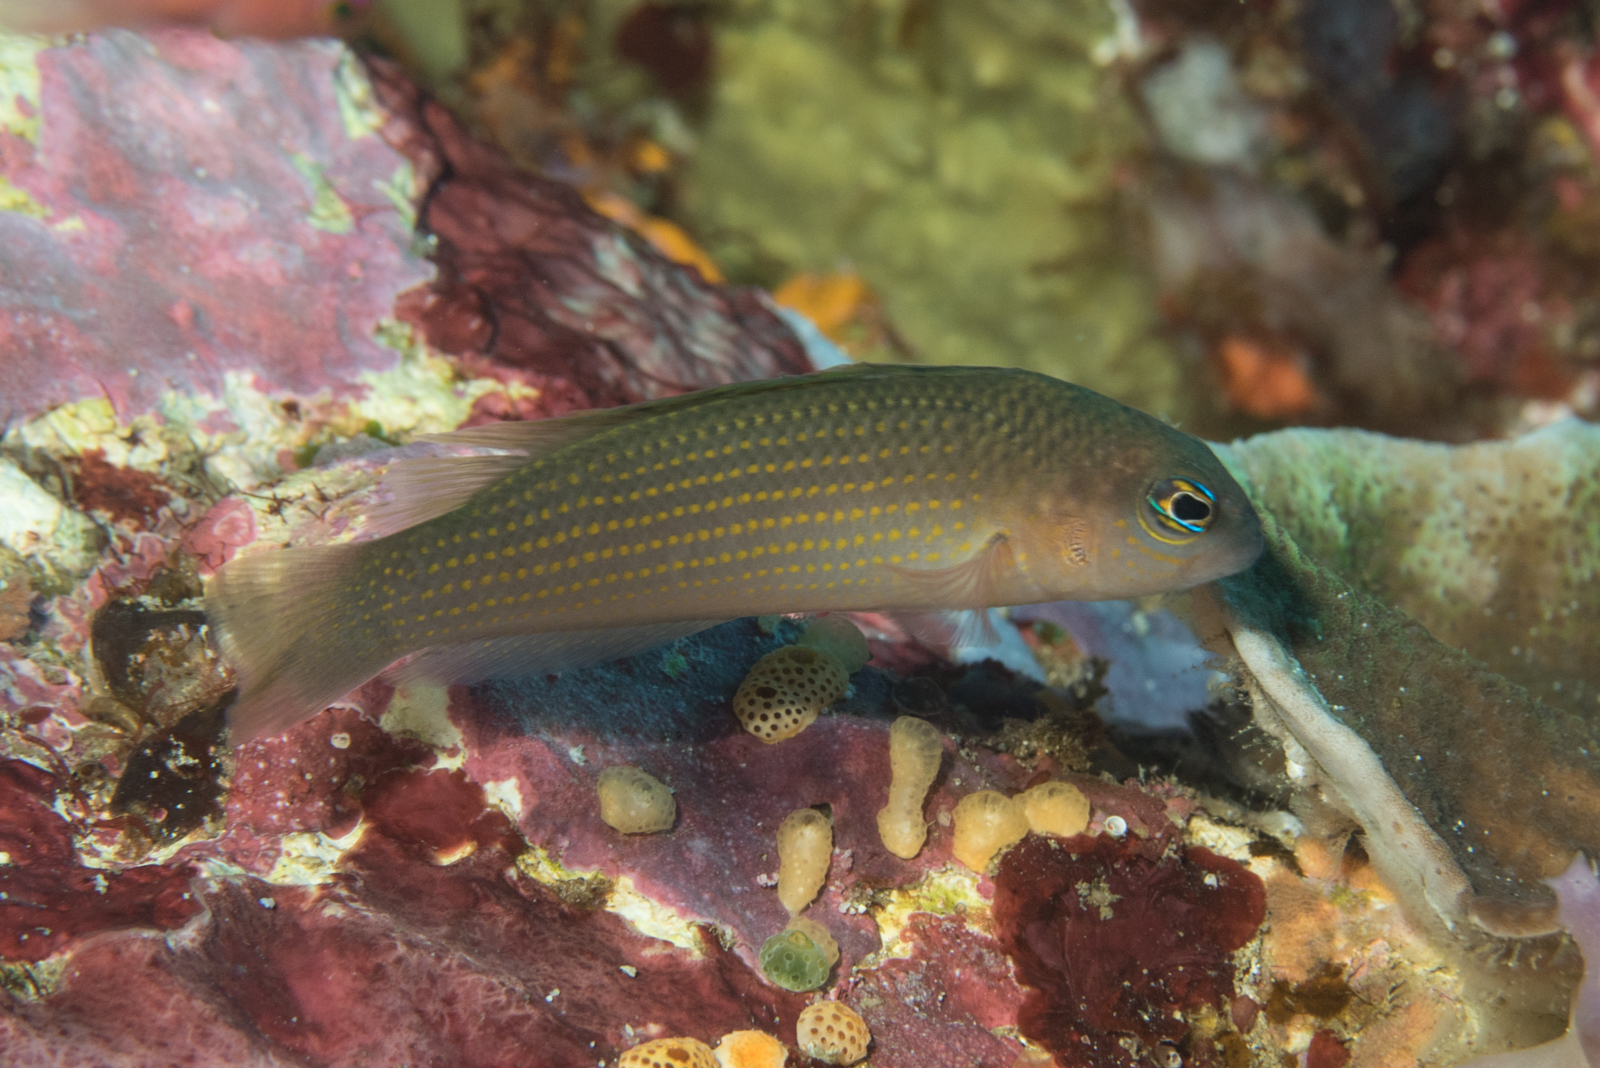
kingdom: Animalia
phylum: Chordata
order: Perciformes
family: Pseudochromidae
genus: Pseudochromis
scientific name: Pseudochromis flavopunctatus
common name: Yellow-spotted dottyback
